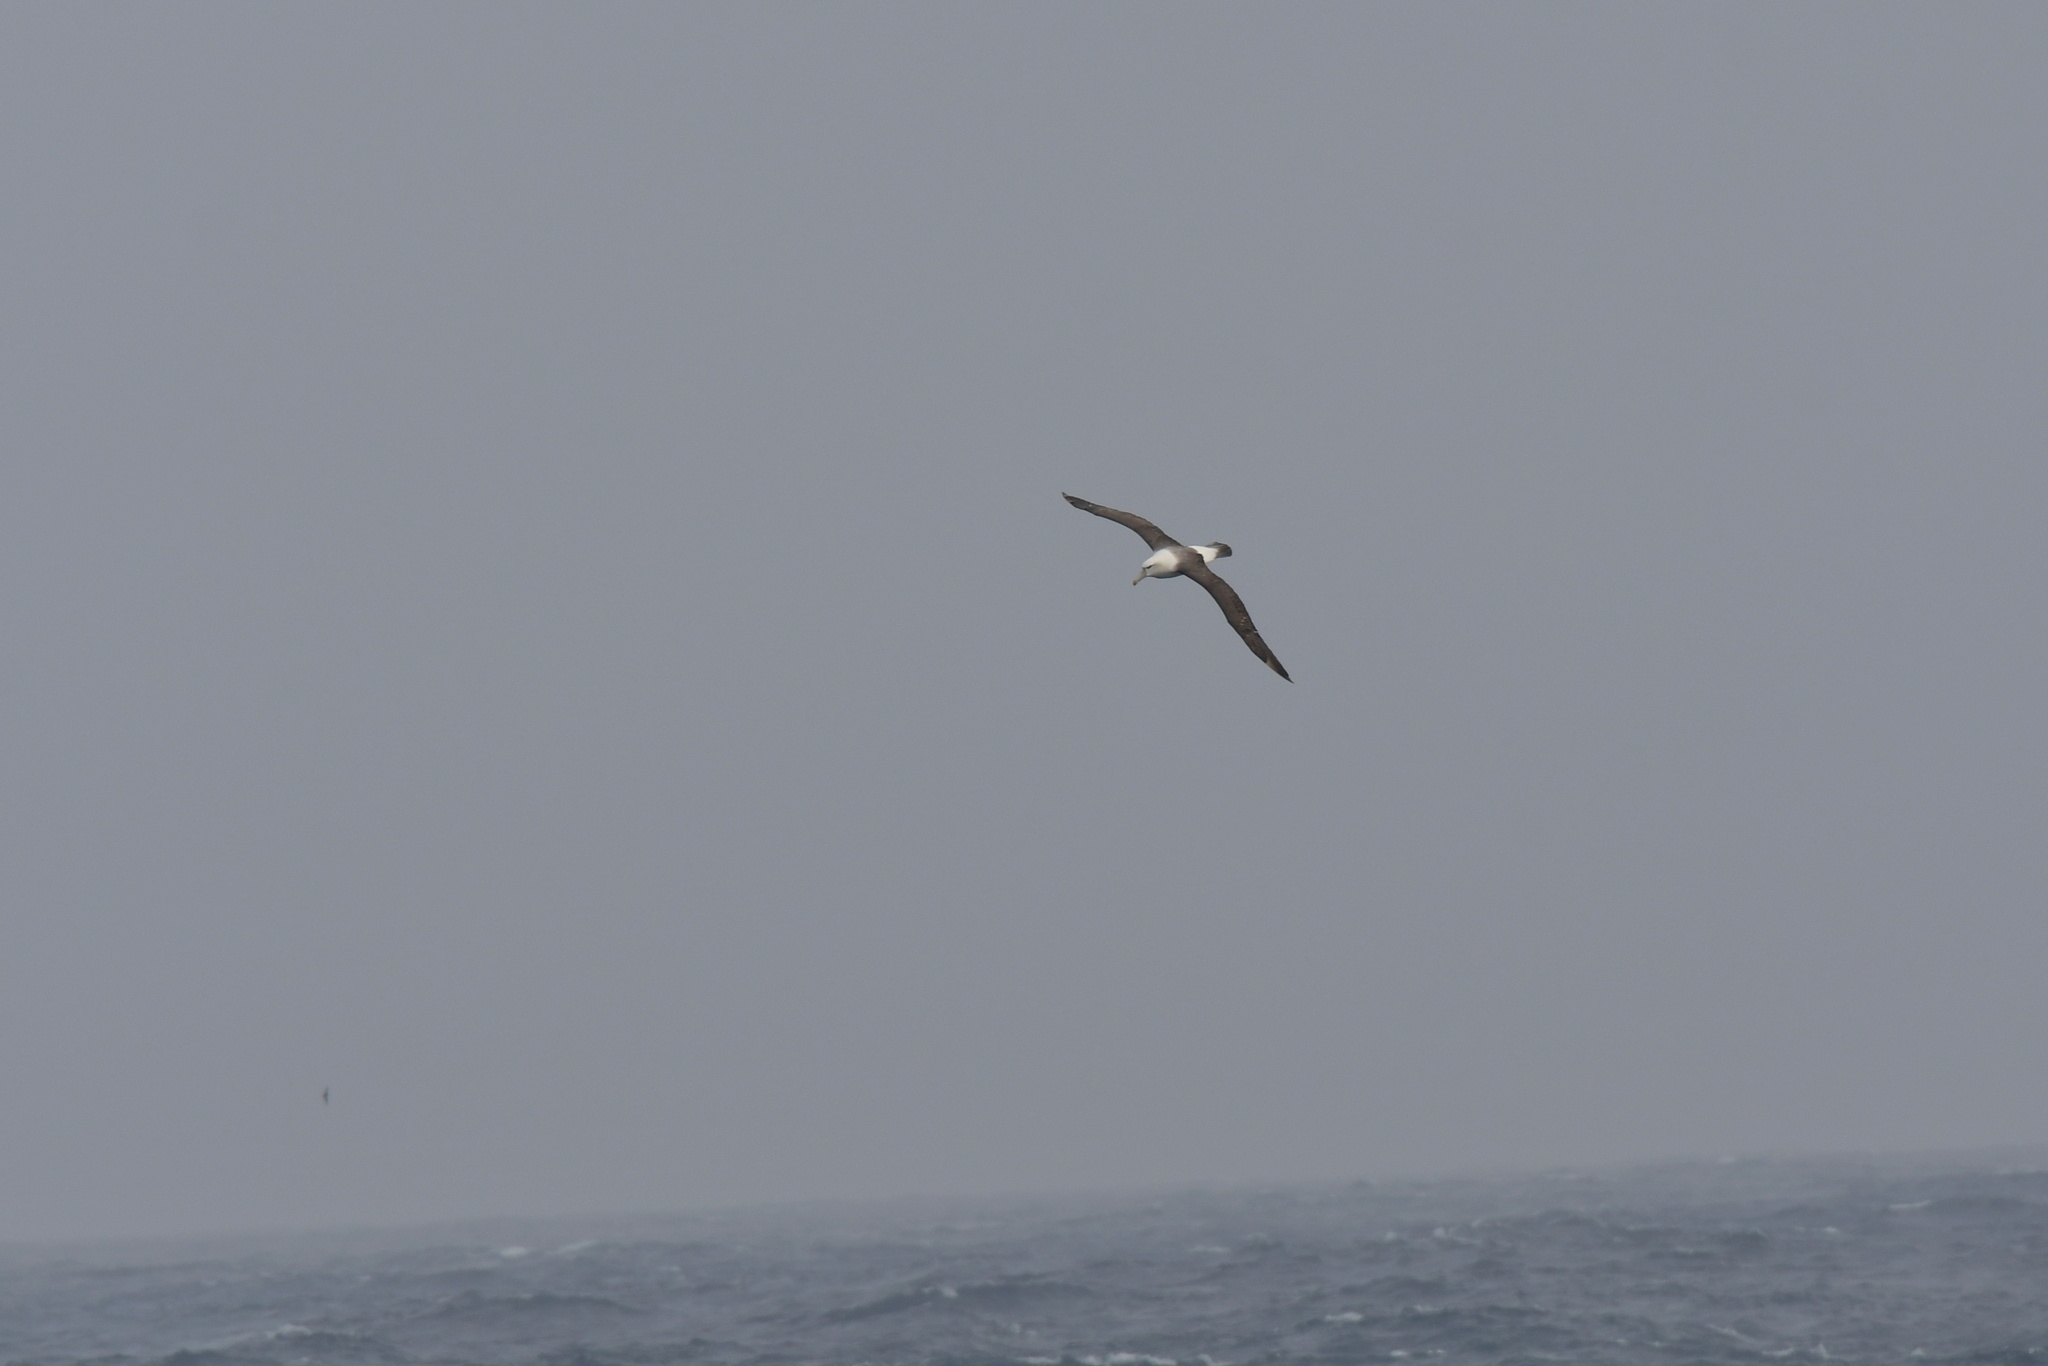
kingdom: Animalia
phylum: Chordata
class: Aves
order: Procellariiformes
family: Diomedeidae
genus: Thalassarche
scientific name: Thalassarche cauta
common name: Shy albatross
